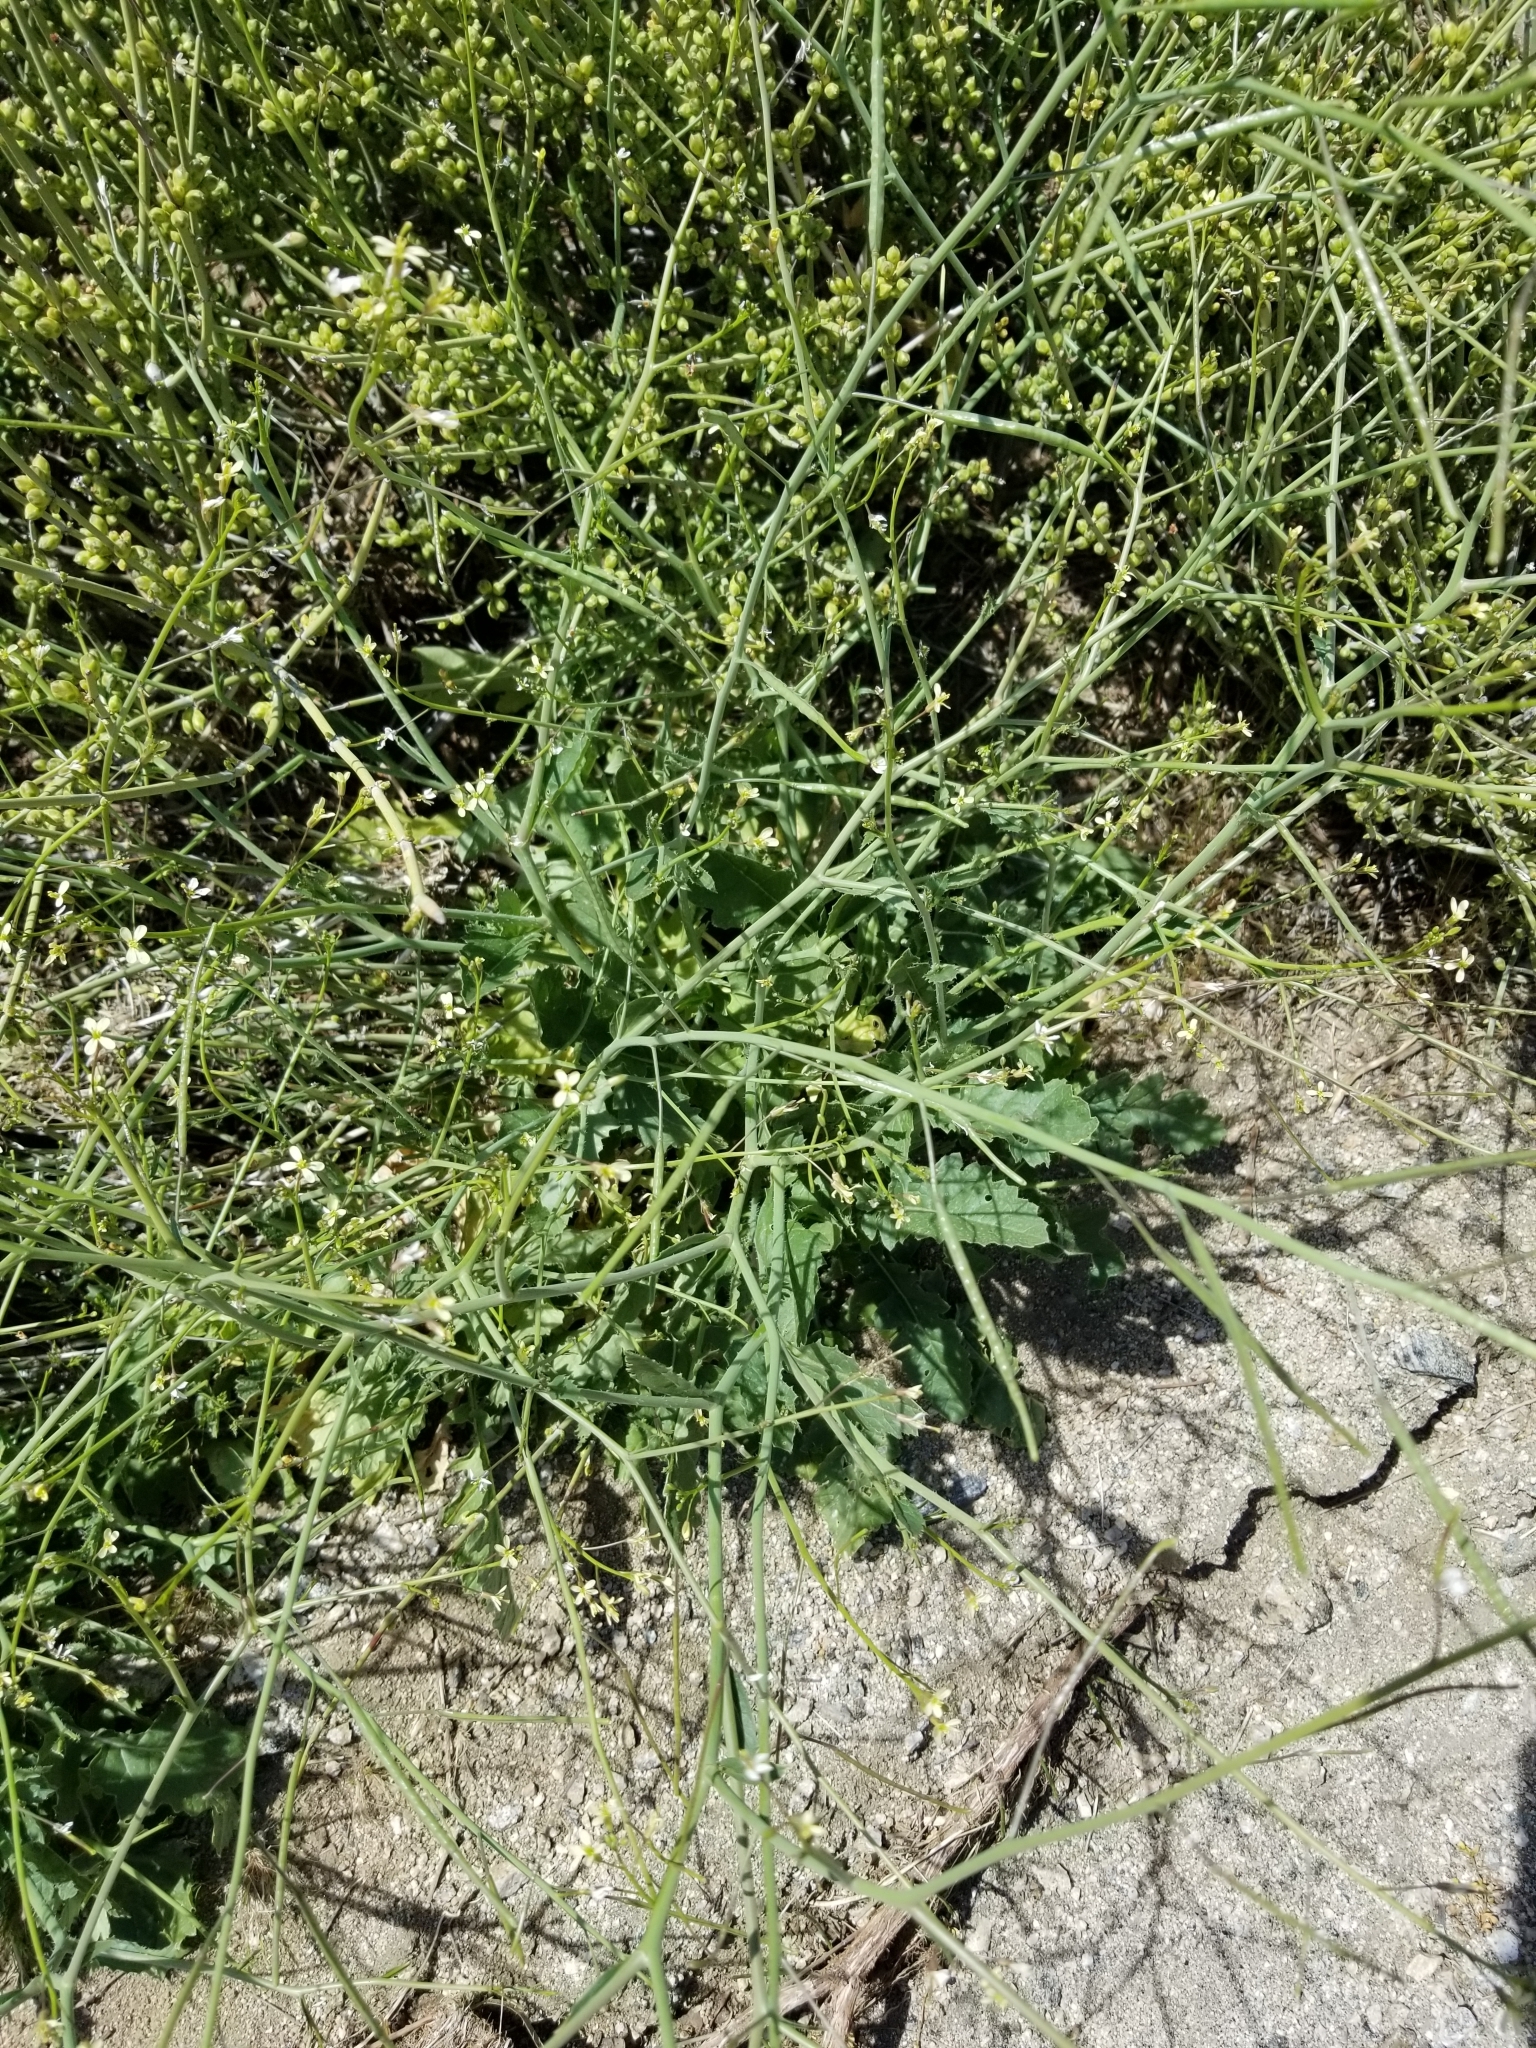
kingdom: Plantae
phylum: Tracheophyta
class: Magnoliopsida
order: Brassicales
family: Brassicaceae
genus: Brassica
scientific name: Brassica tournefortii
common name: Pale cabbage
